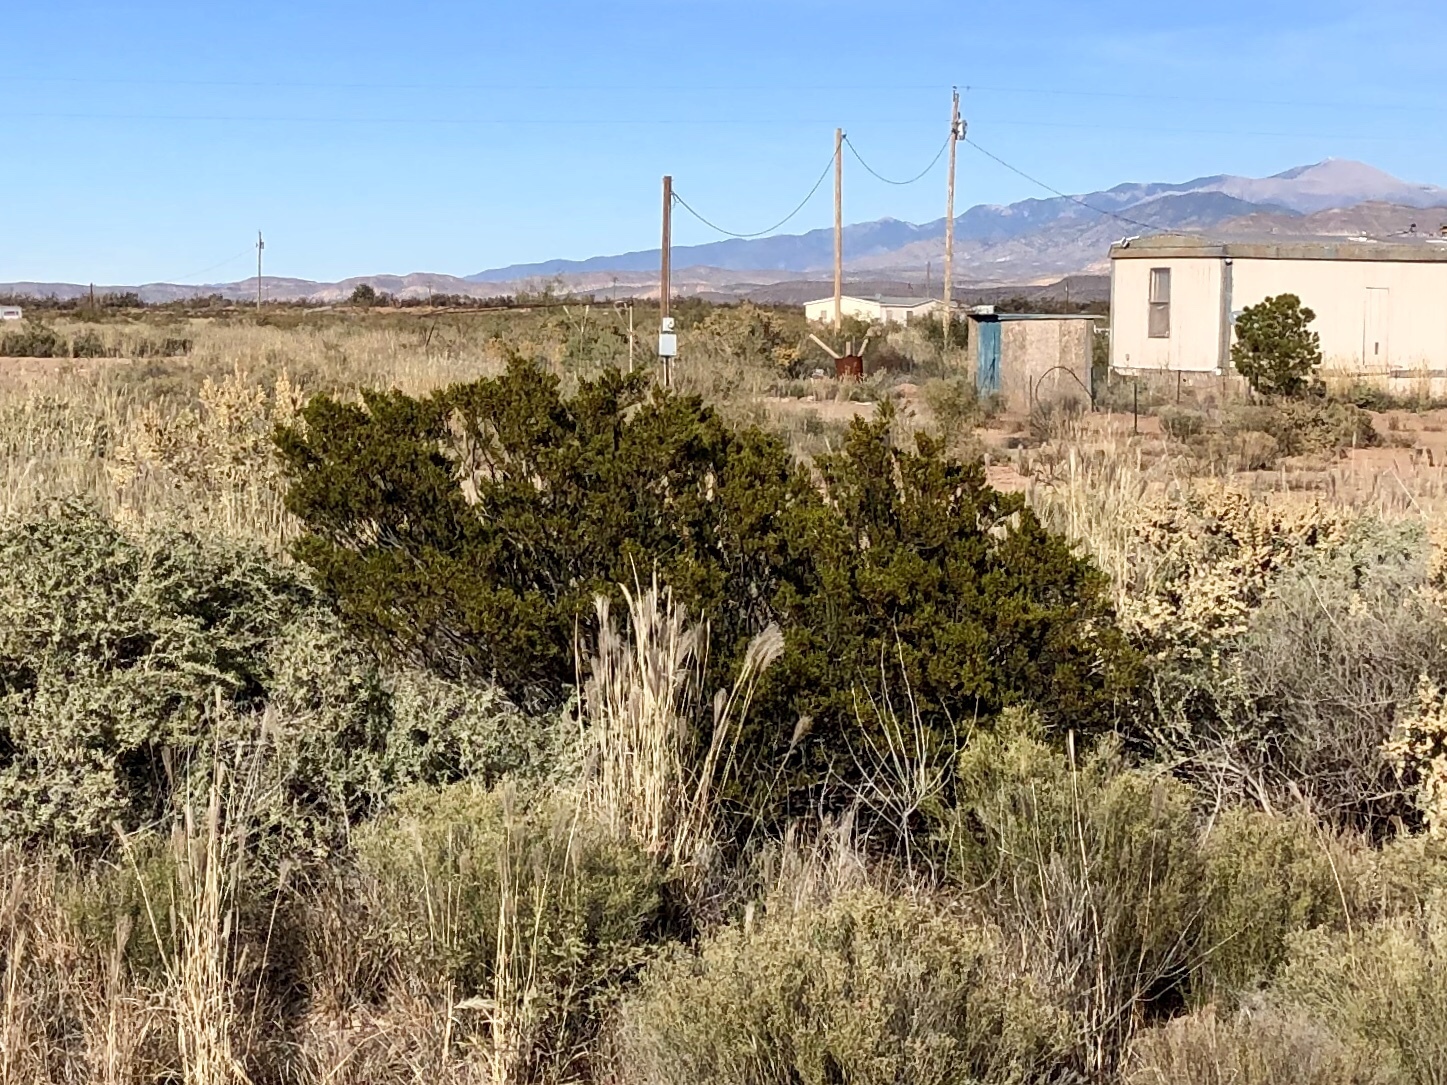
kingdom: Plantae
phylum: Tracheophyta
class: Magnoliopsida
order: Zygophyllales
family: Zygophyllaceae
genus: Larrea
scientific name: Larrea tridentata
